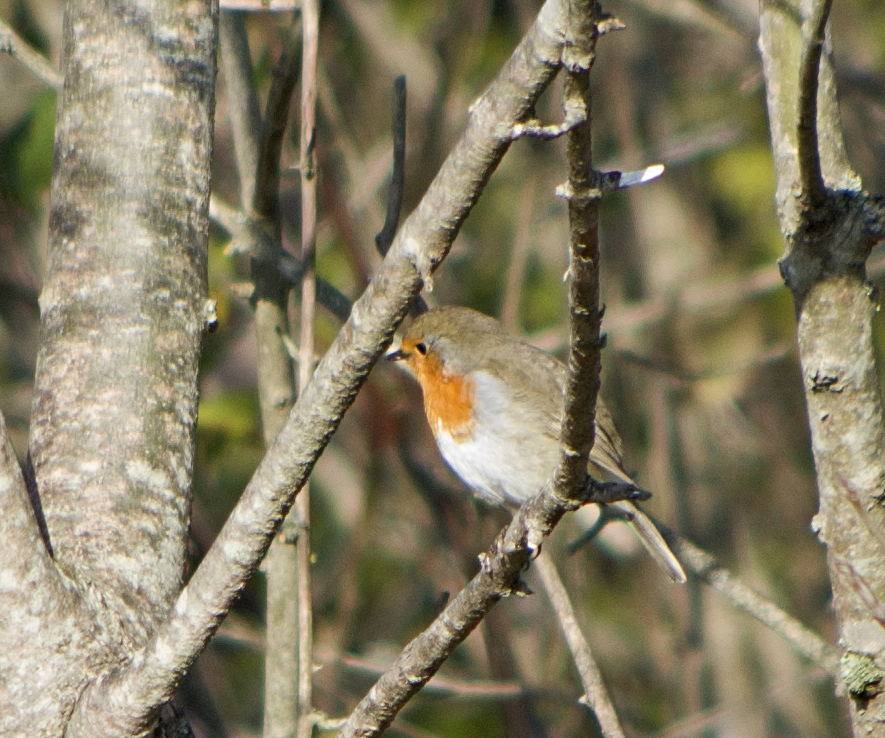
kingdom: Animalia
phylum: Chordata
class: Aves
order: Passeriformes
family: Muscicapidae
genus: Erithacus
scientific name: Erithacus rubecula
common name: European robin
